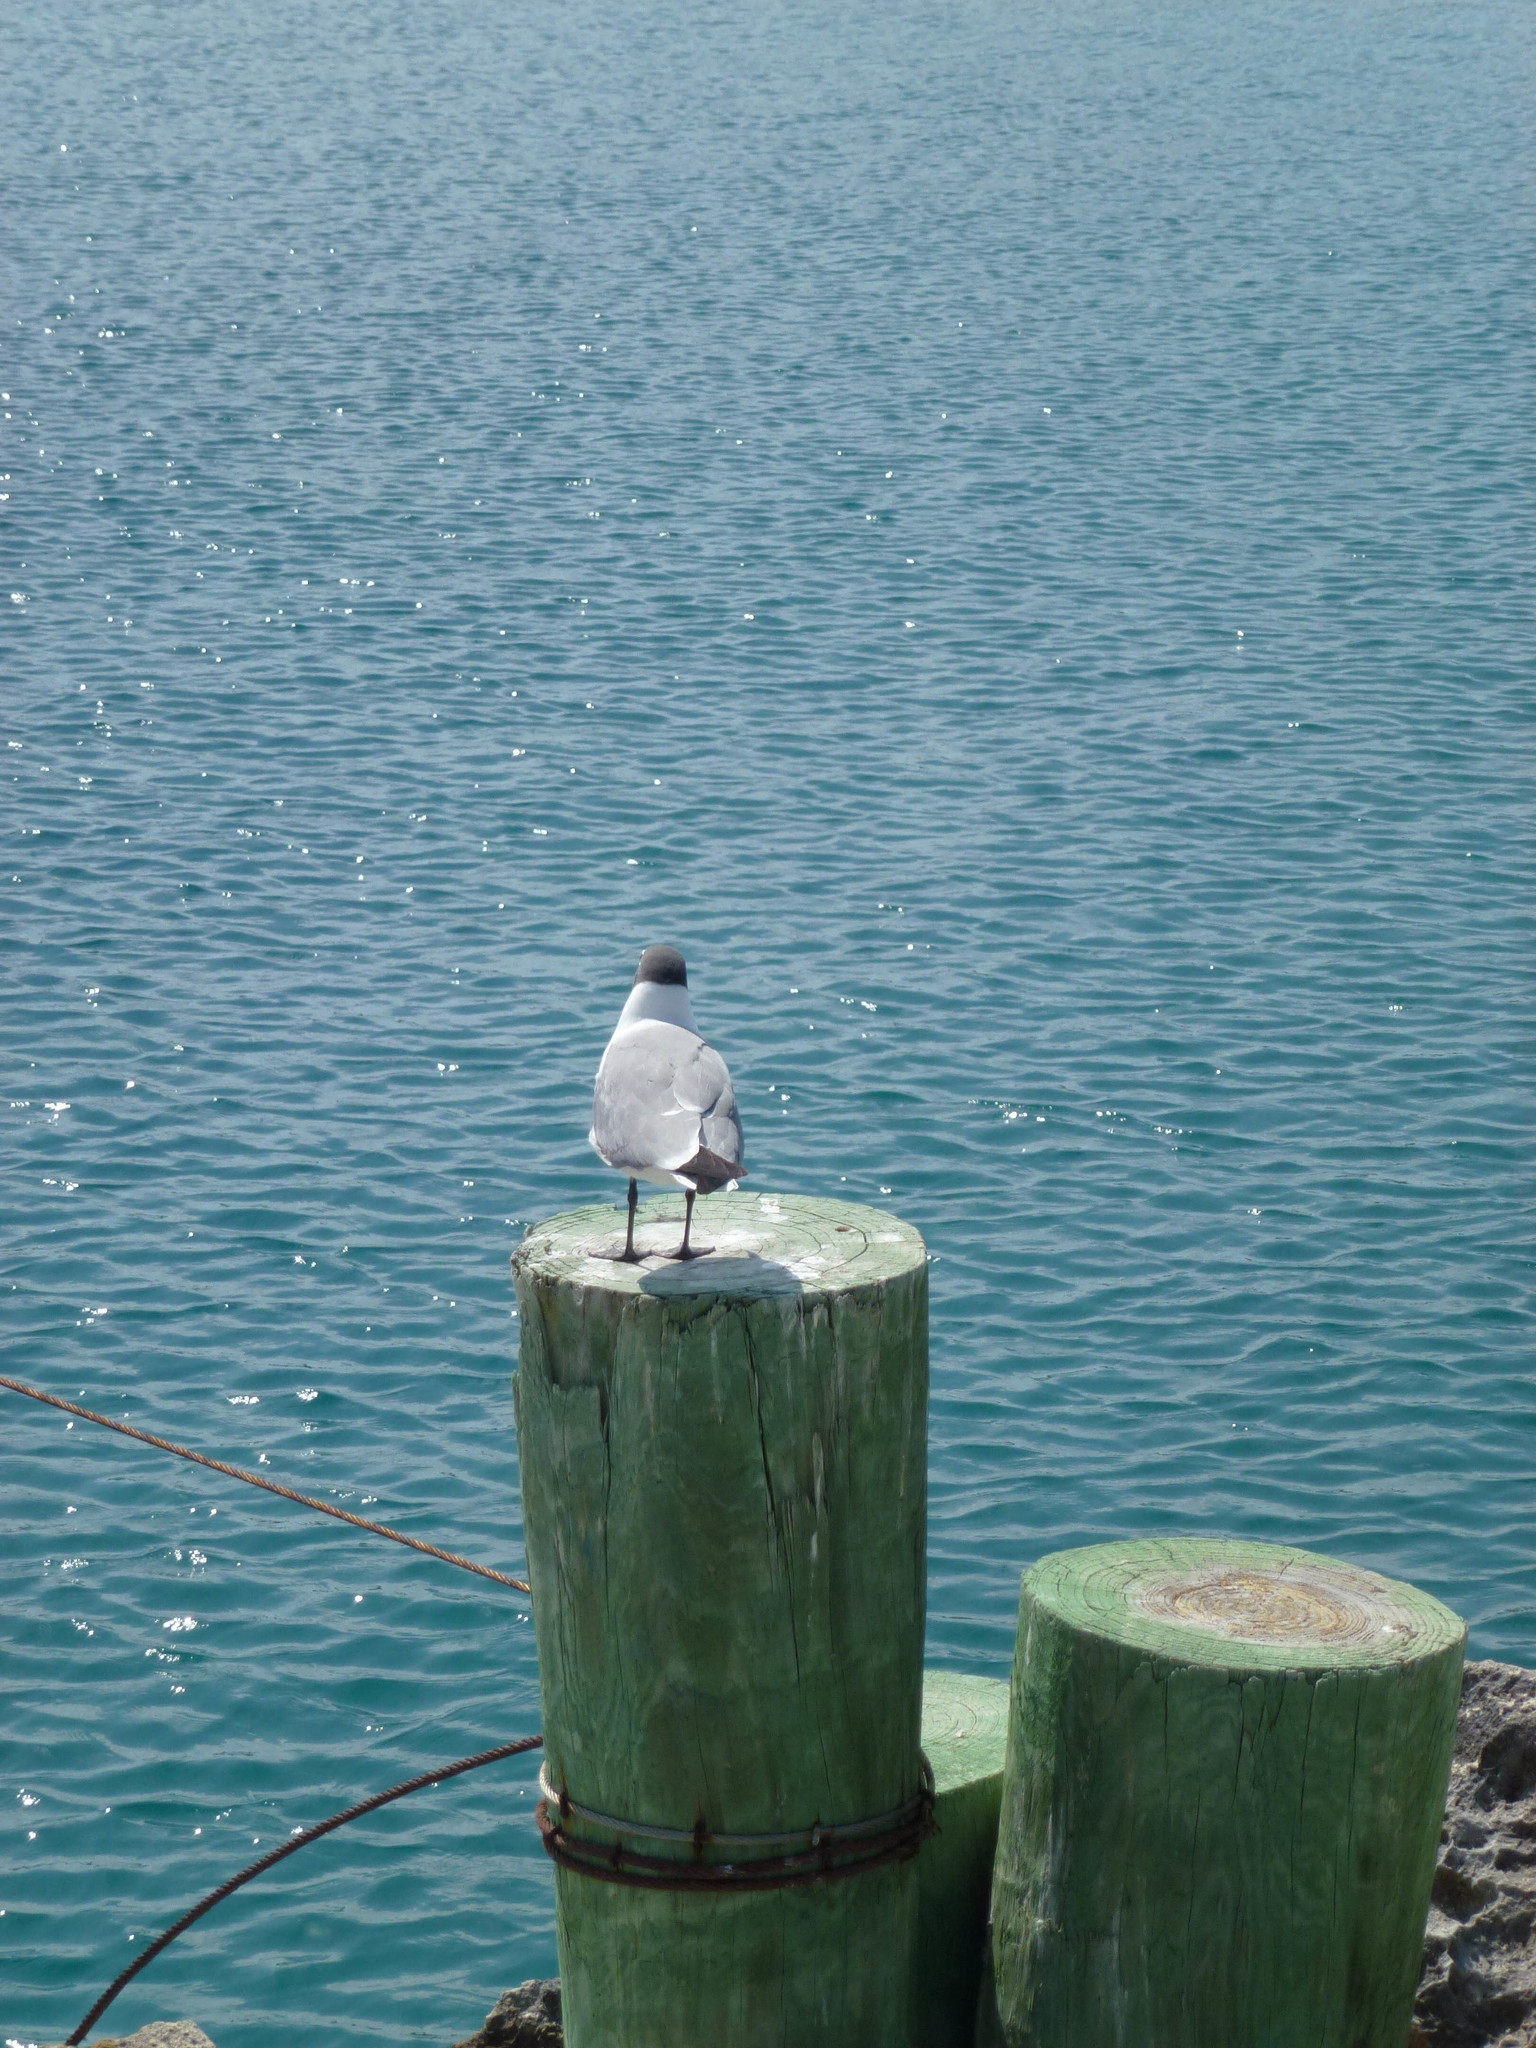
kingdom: Animalia
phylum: Chordata
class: Aves
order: Charadriiformes
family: Laridae
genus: Leucophaeus
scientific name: Leucophaeus atricilla
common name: Laughing gull
